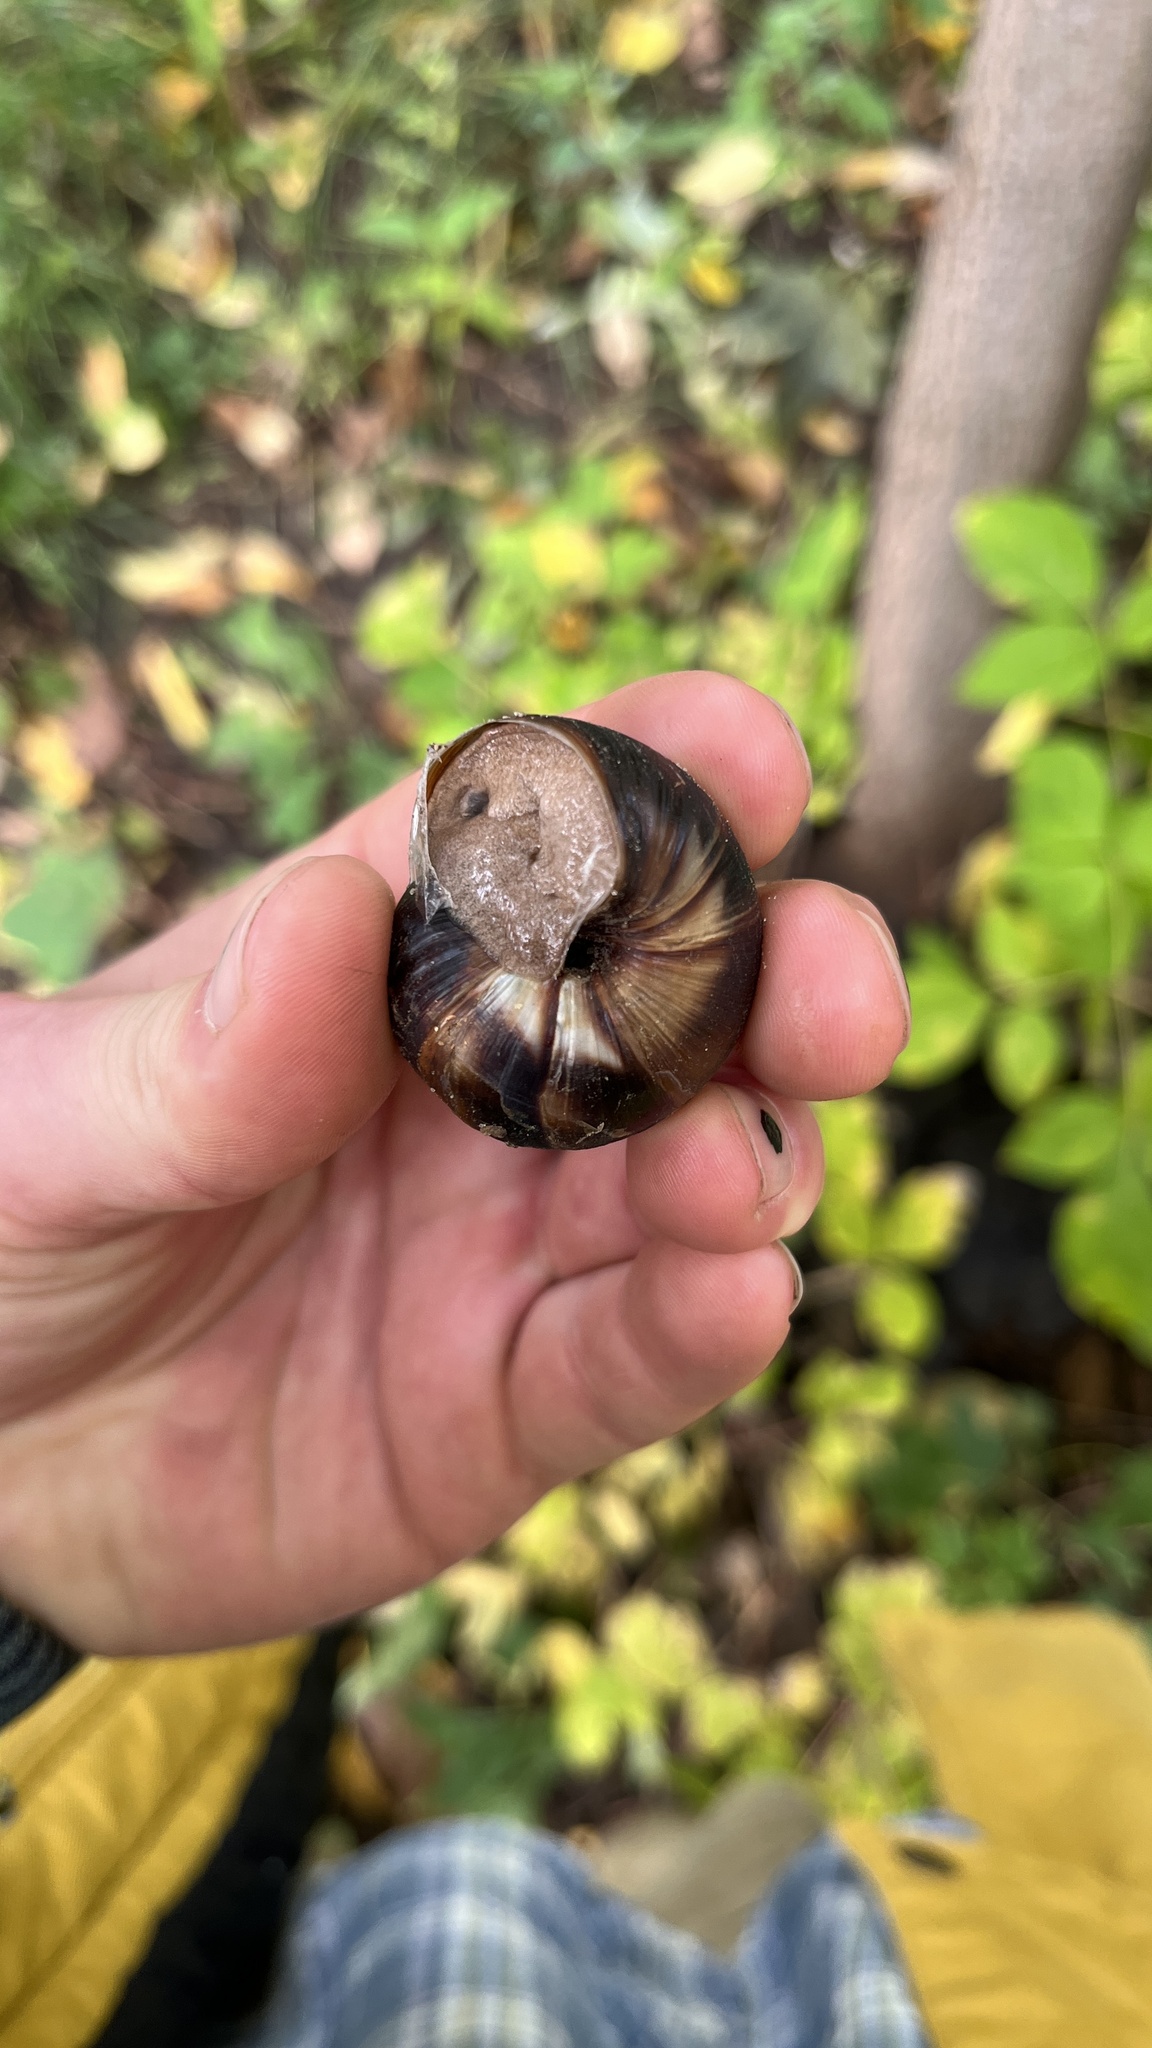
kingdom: Animalia
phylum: Mollusca
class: Gastropoda
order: Stylommatophora
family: Helicidae
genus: Helix
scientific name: Helix lucorum
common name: Turkish snail
